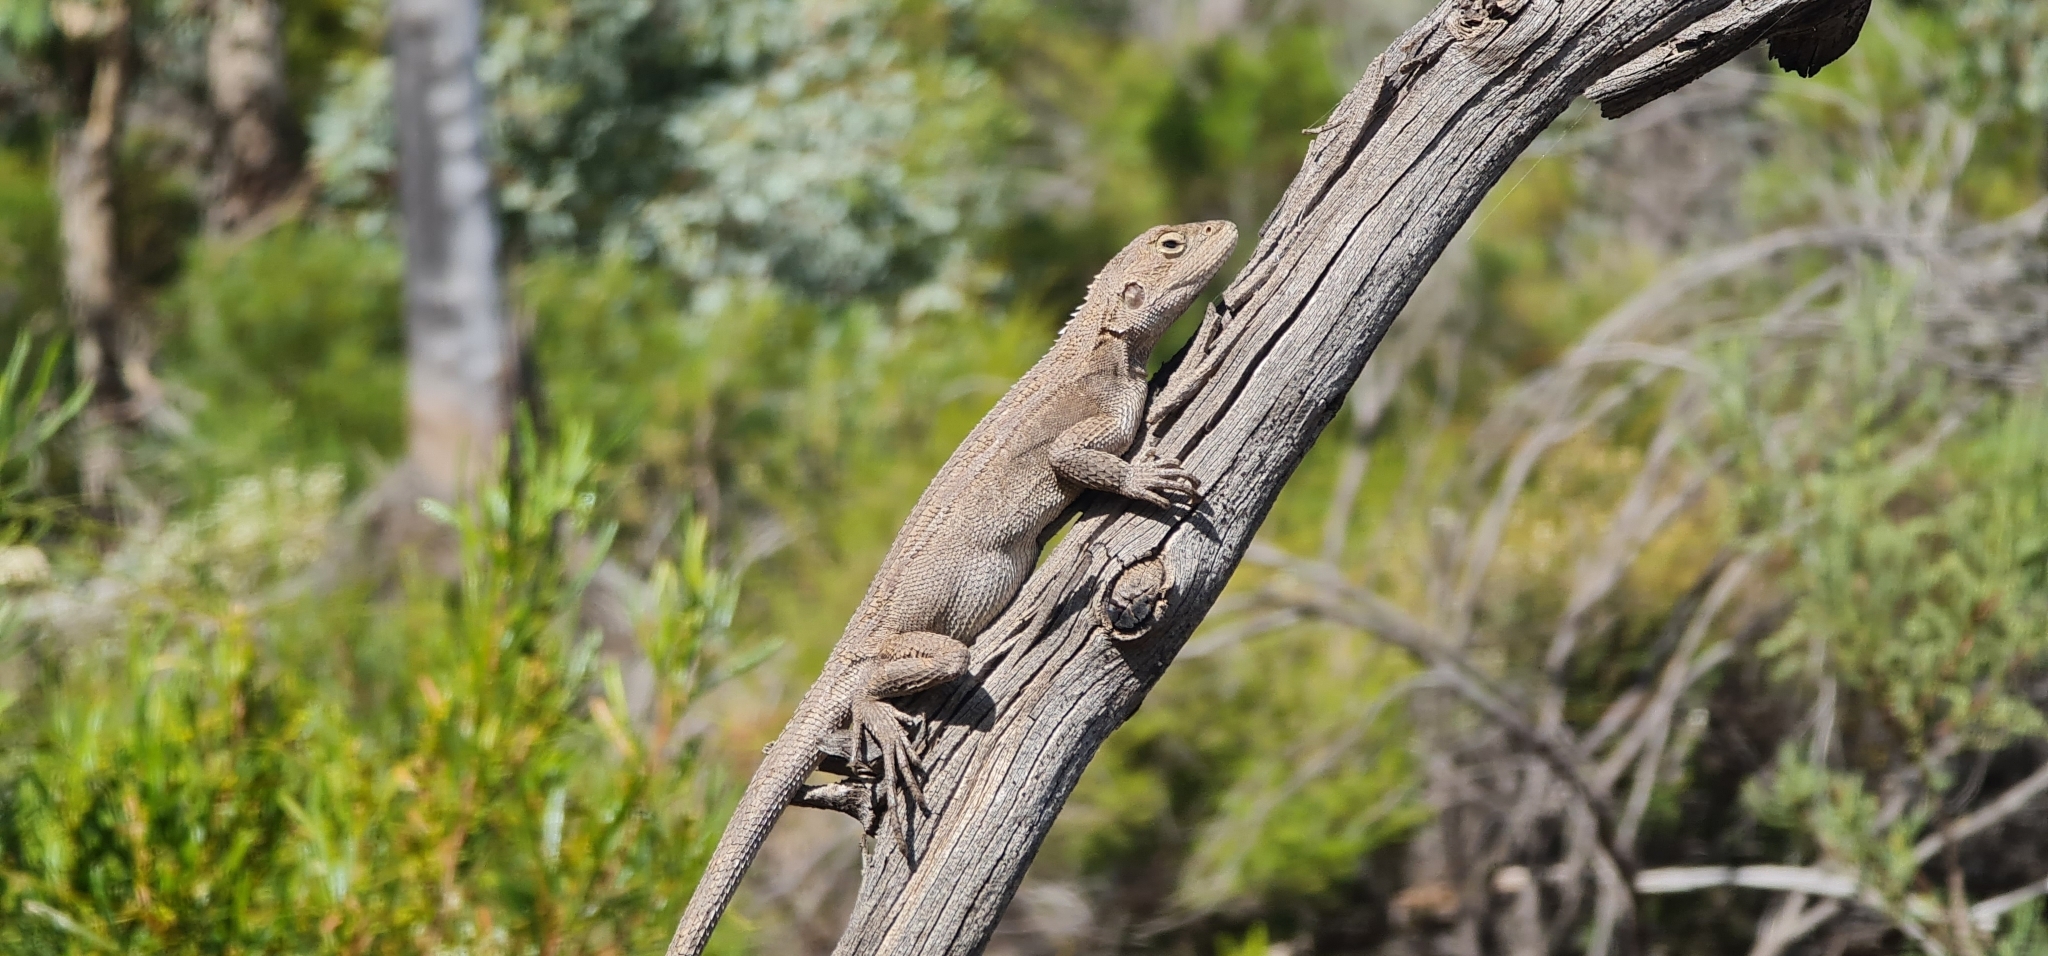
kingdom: Animalia
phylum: Chordata
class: Squamata
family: Agamidae
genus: Diporiphora
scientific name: Diporiphora nobbi
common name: Nobbi
